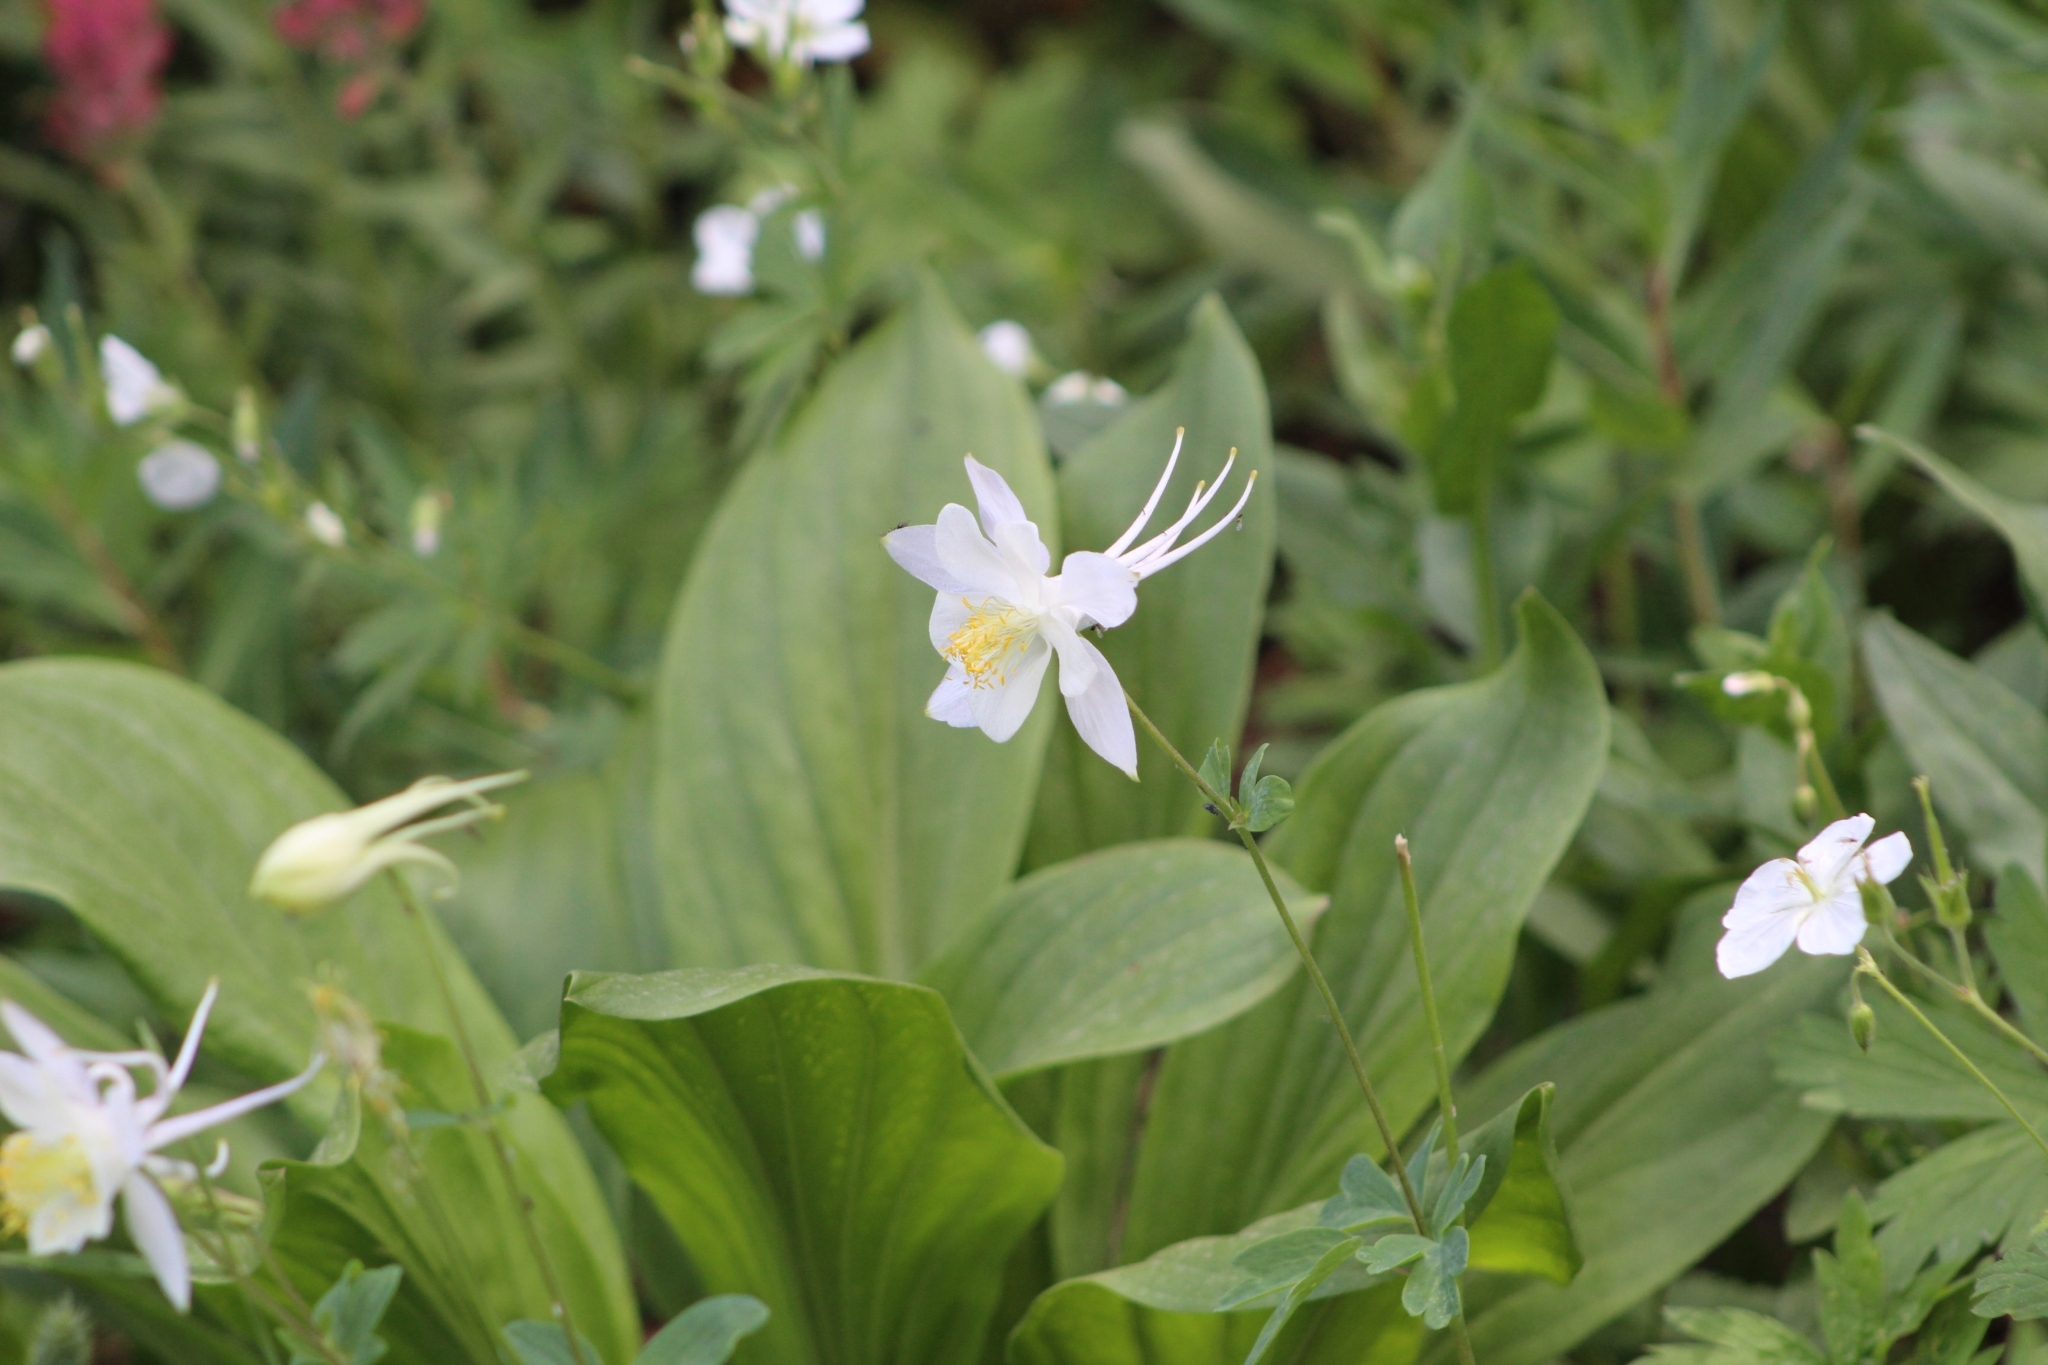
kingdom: Plantae
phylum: Tracheophyta
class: Magnoliopsida
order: Ranunculales
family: Ranunculaceae
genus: Aquilegia
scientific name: Aquilegia coerulea
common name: Rocky mountain columbine
